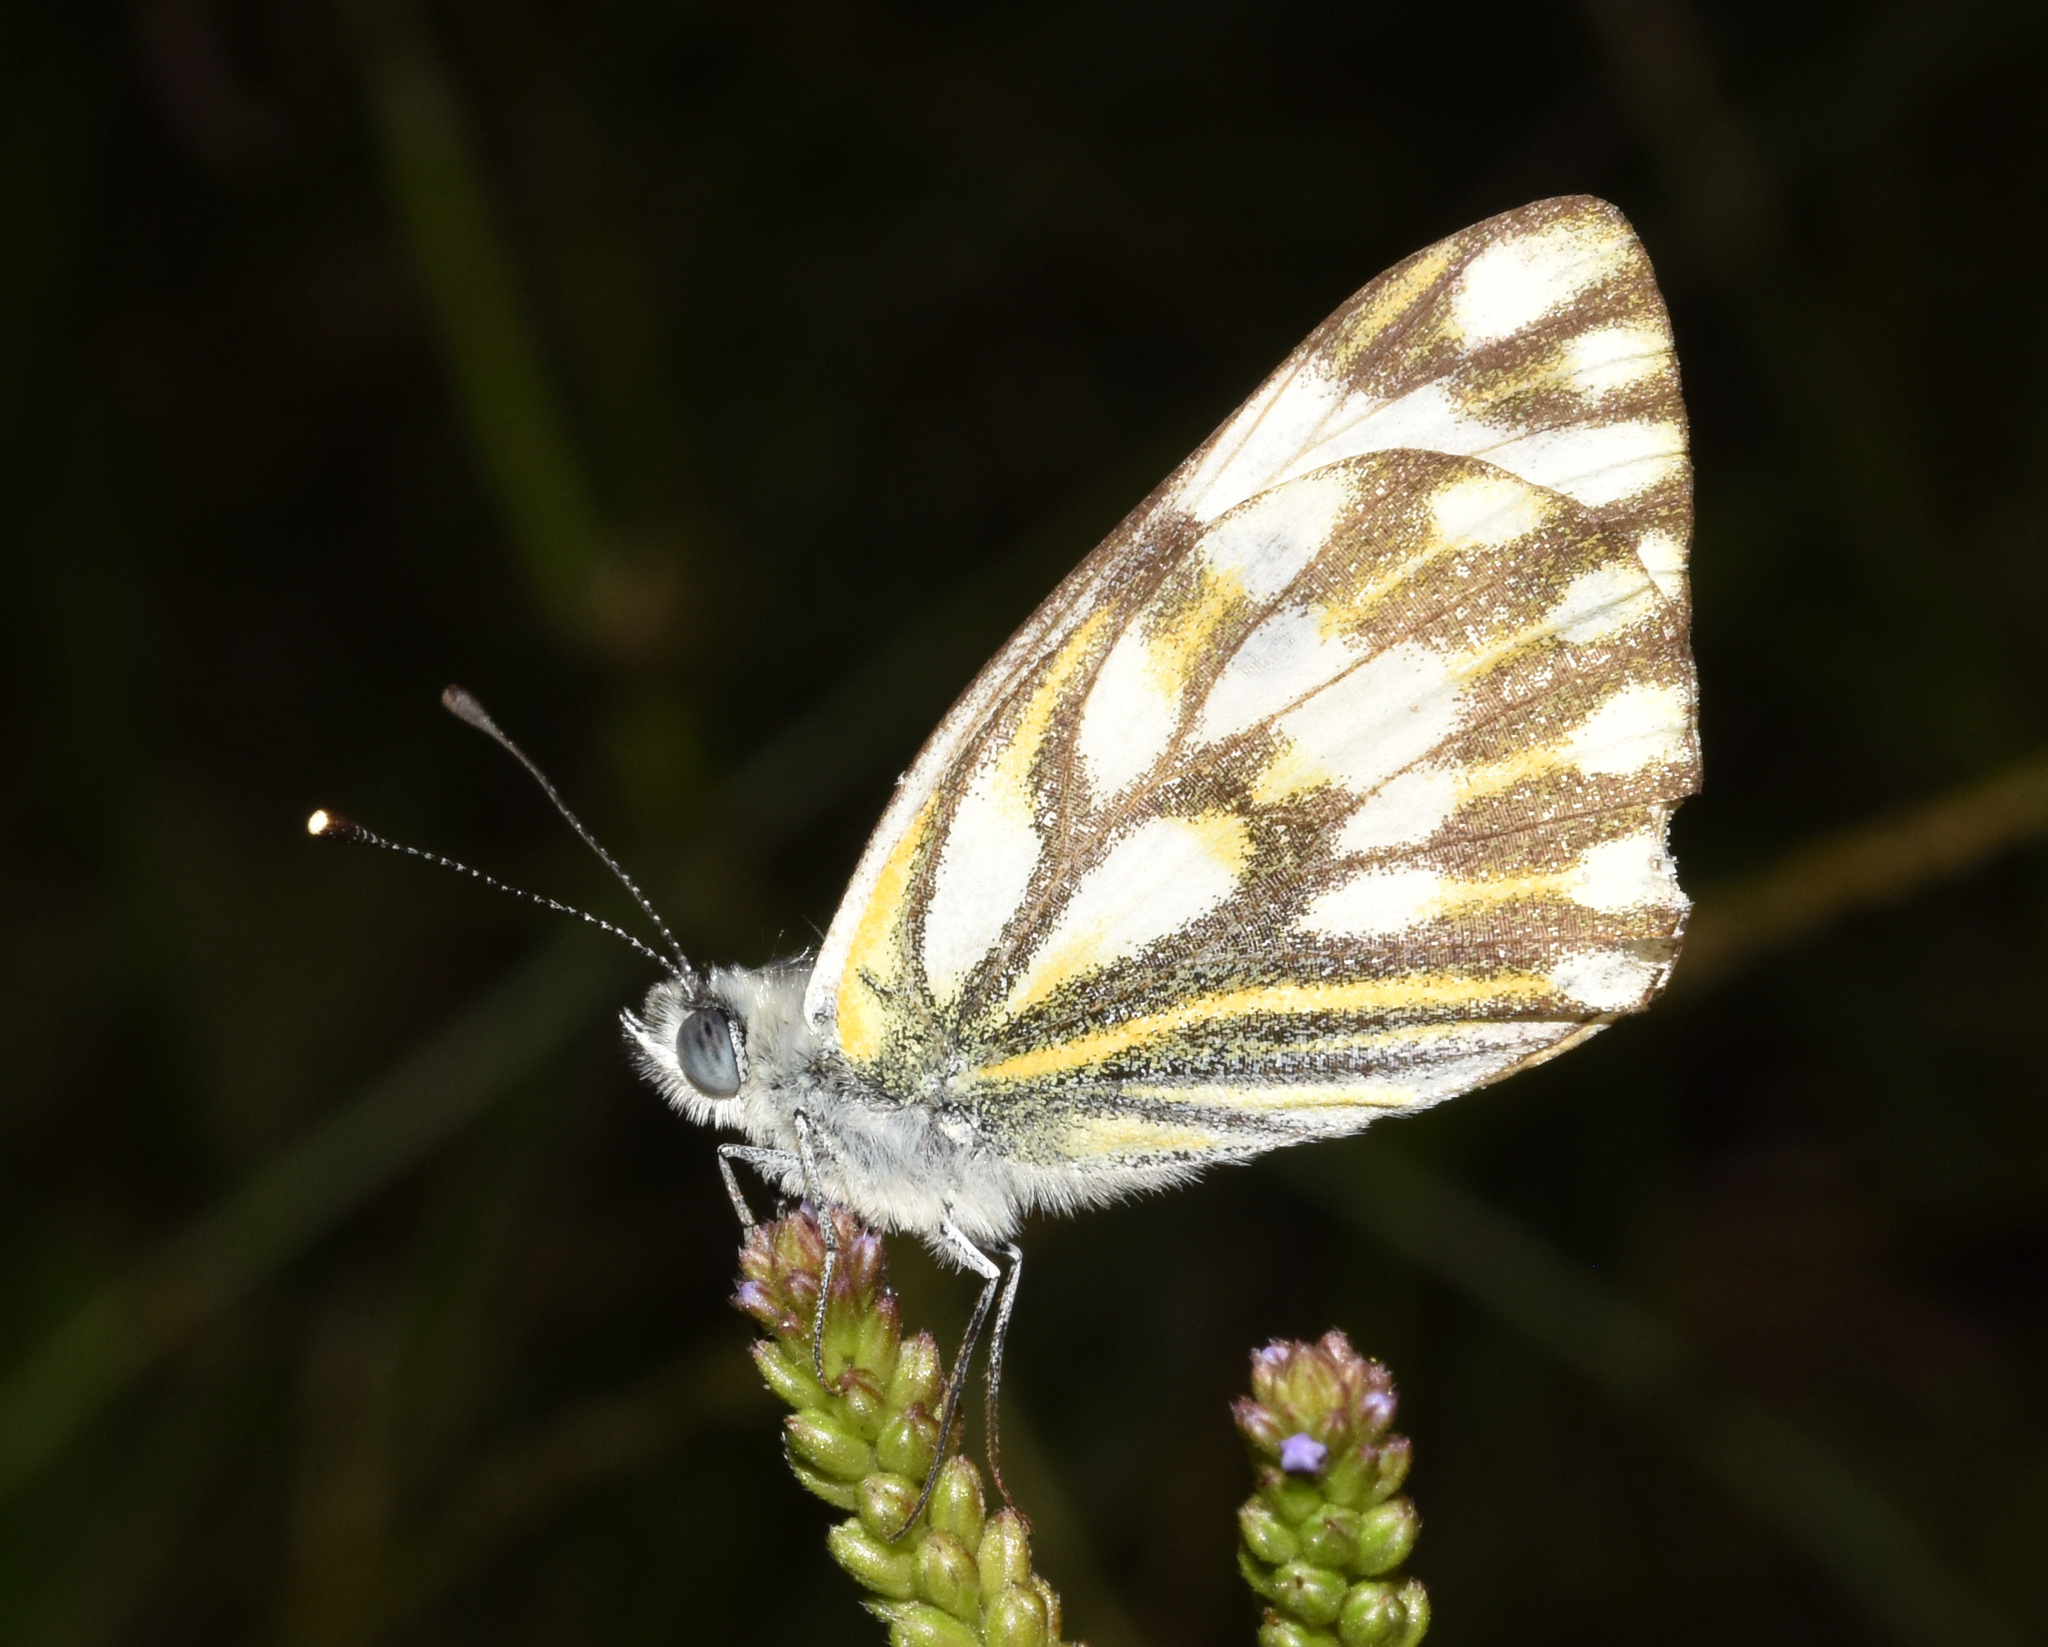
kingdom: Animalia
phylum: Arthropoda
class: Insecta
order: Lepidoptera
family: Pieridae
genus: Pontia
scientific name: Pontia helice
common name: Meadow white
